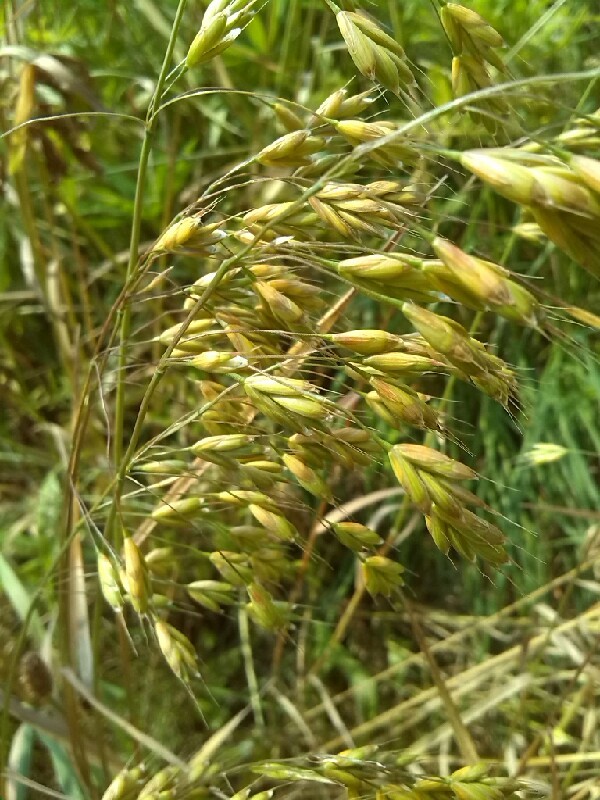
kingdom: Plantae
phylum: Tracheophyta
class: Liliopsida
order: Poales
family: Poaceae
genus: Bromus
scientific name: Bromus secalinus
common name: Rye brome
